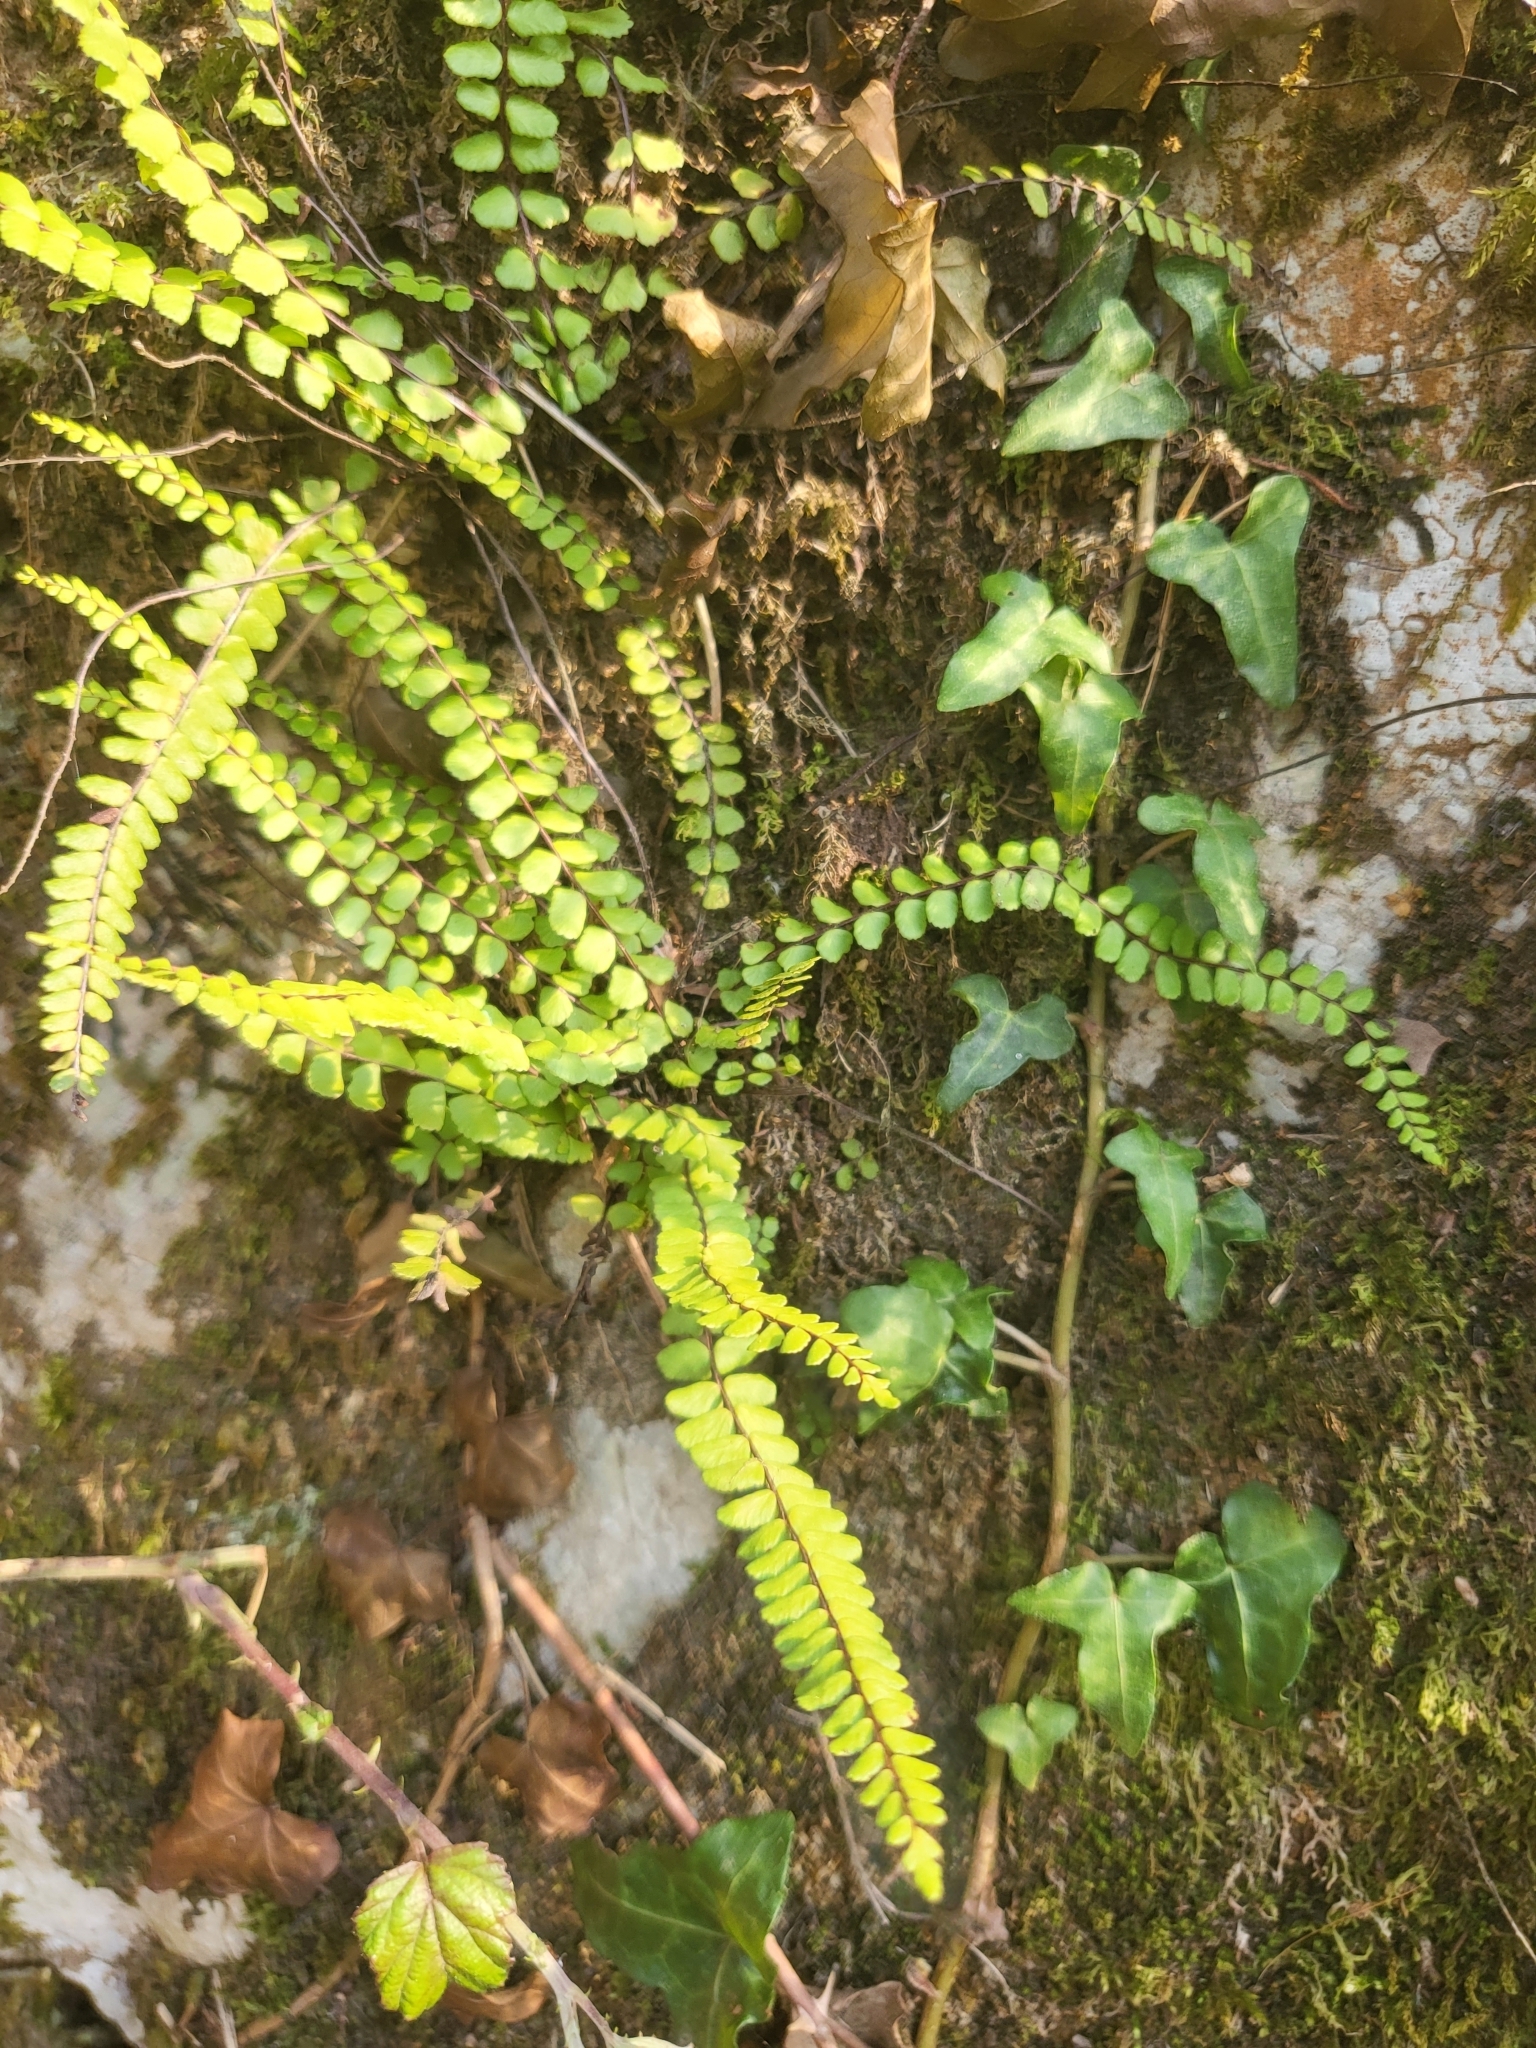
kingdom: Plantae
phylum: Tracheophyta
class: Polypodiopsida
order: Polypodiales
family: Aspleniaceae
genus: Asplenium
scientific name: Asplenium trichomanes
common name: Maidenhair spleenwort
